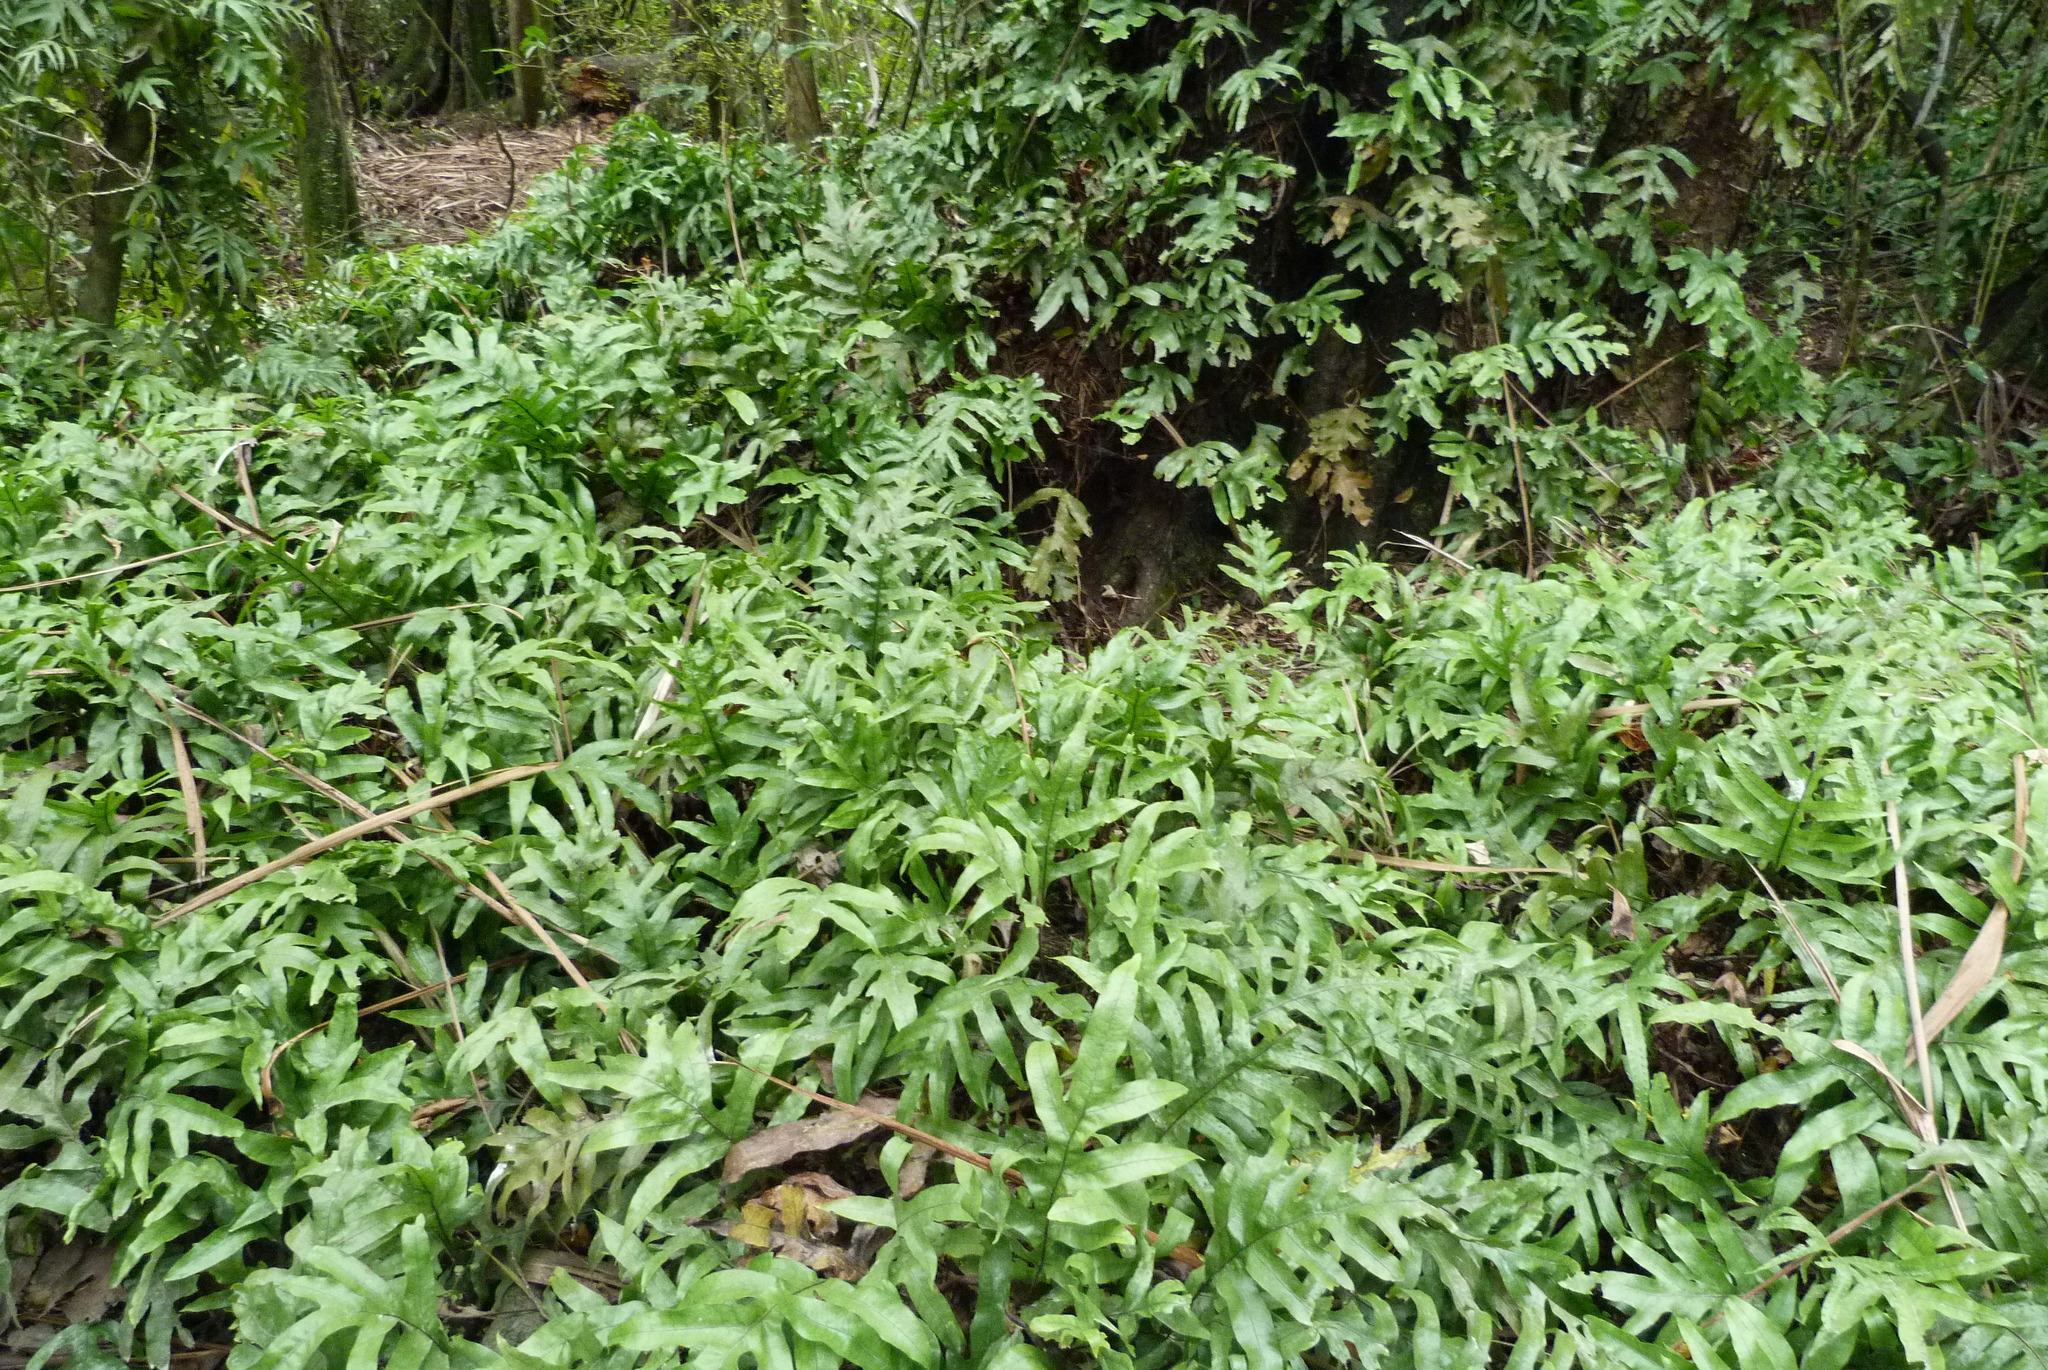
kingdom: Plantae
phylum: Tracheophyta
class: Polypodiopsida
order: Polypodiales
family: Polypodiaceae
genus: Lecanopteris
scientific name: Lecanopteris pustulata
